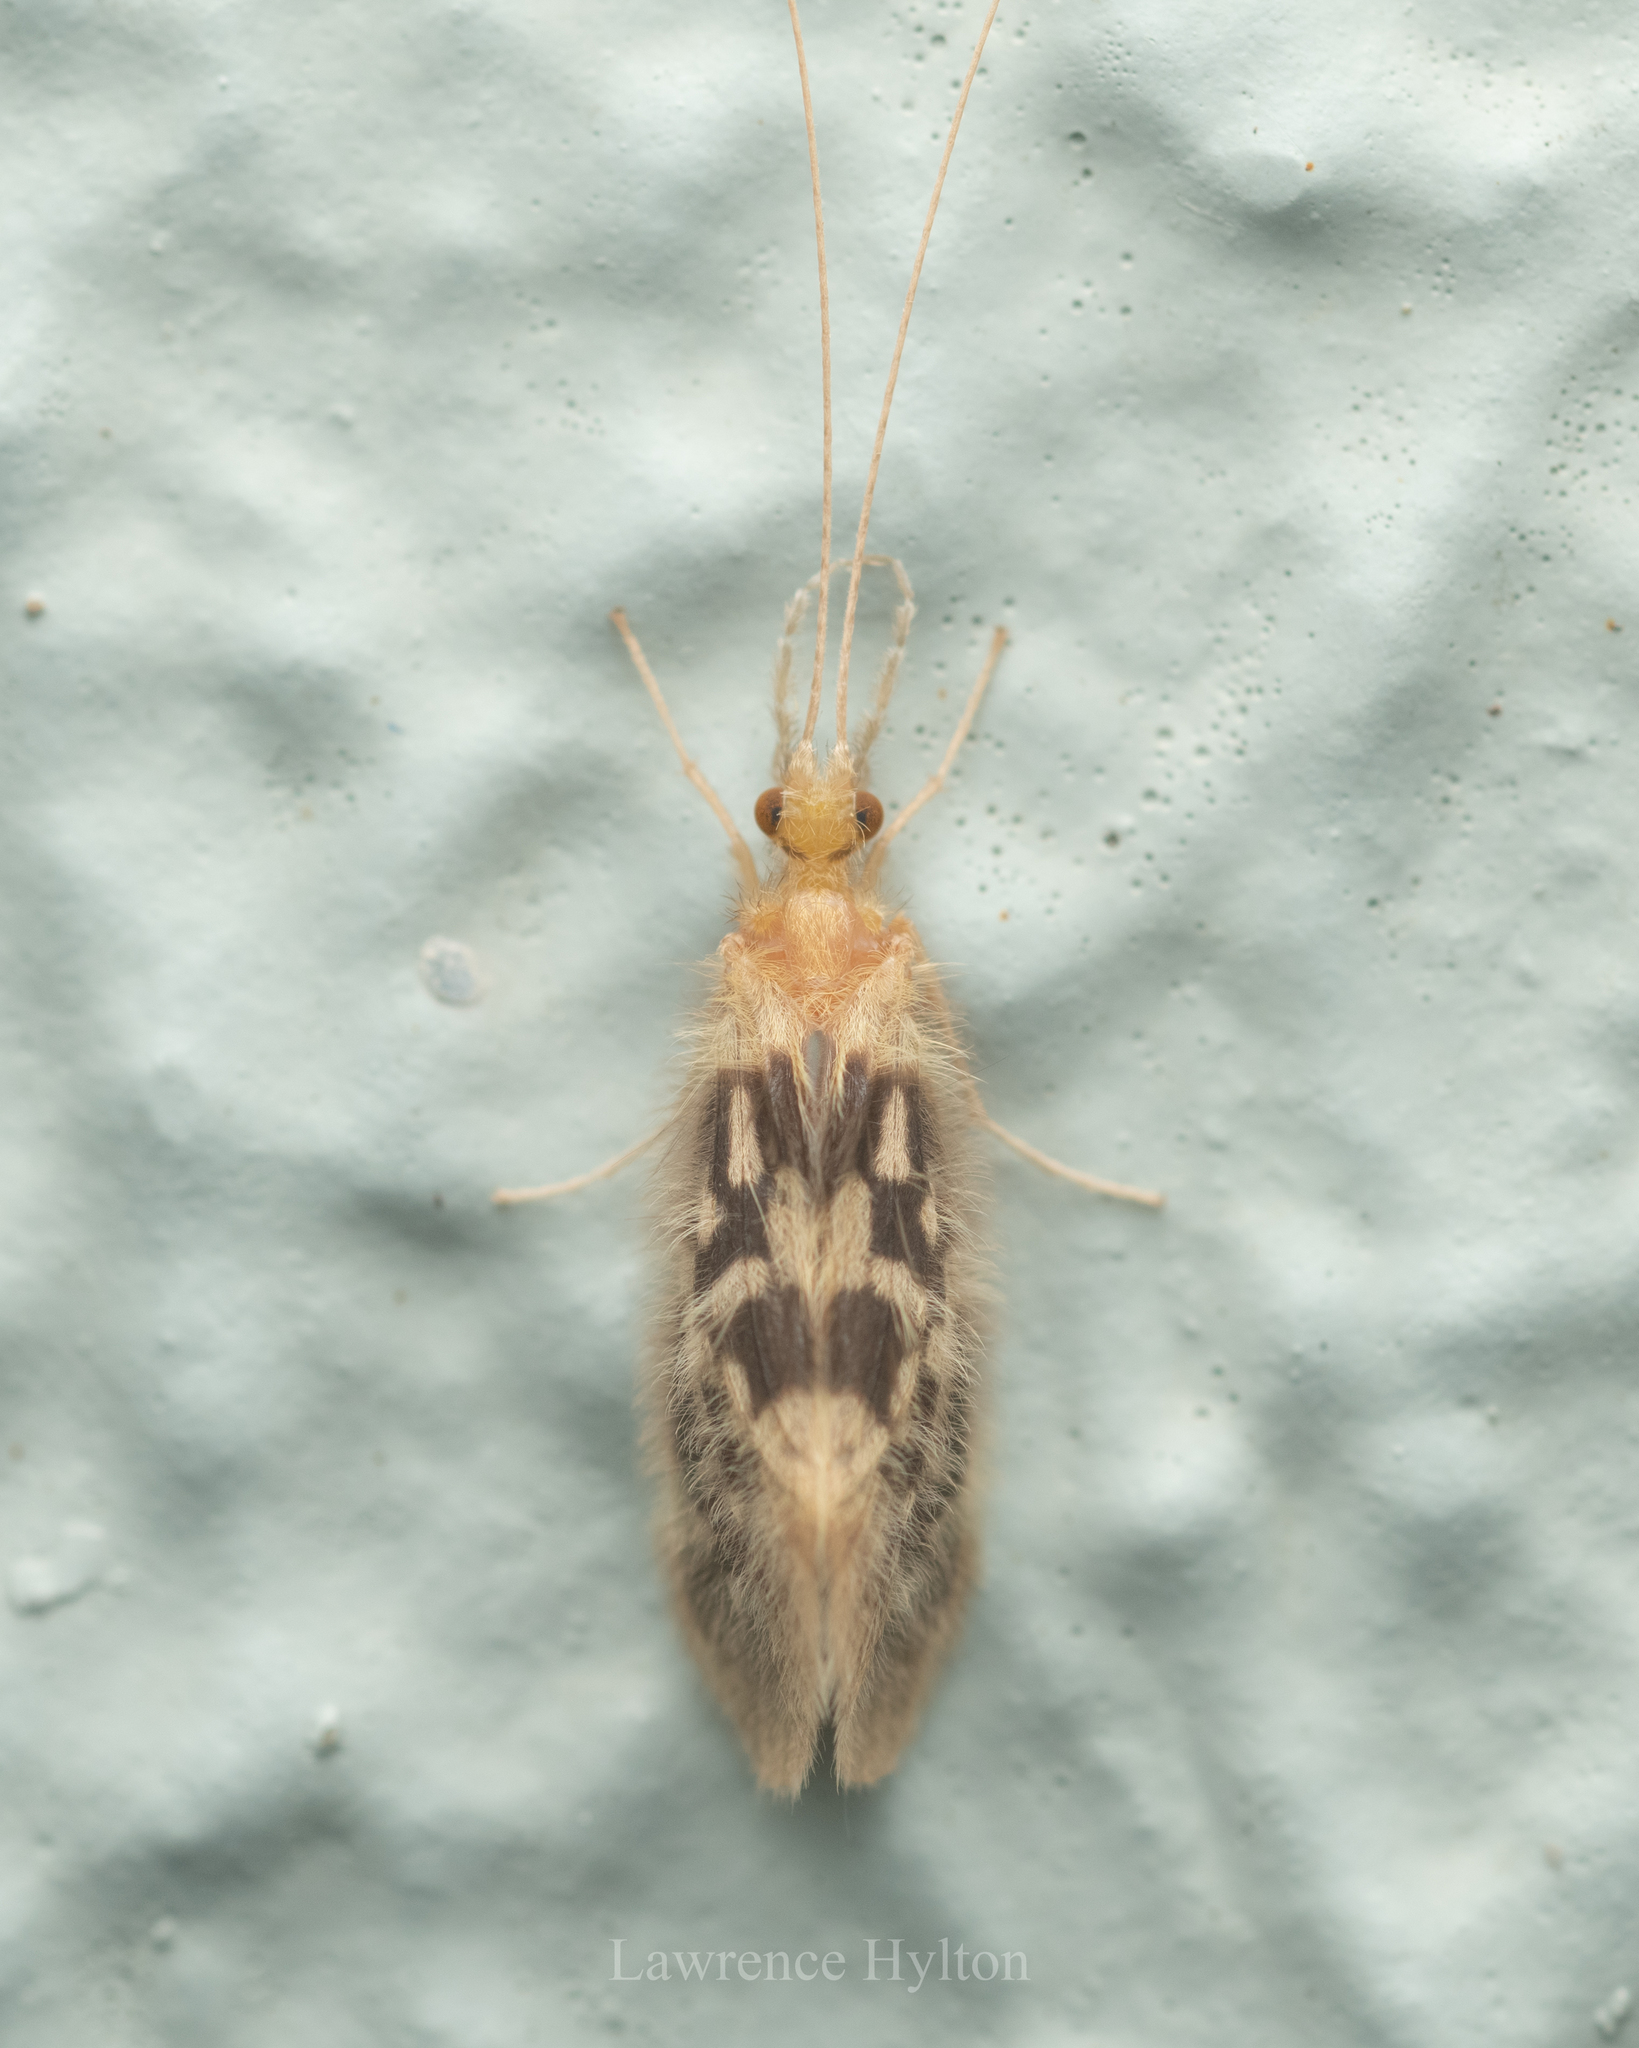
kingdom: Animalia
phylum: Arthropoda
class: Insecta
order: Trichoptera
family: Calamoceratidae
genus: Ganonema
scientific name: Ganonema
